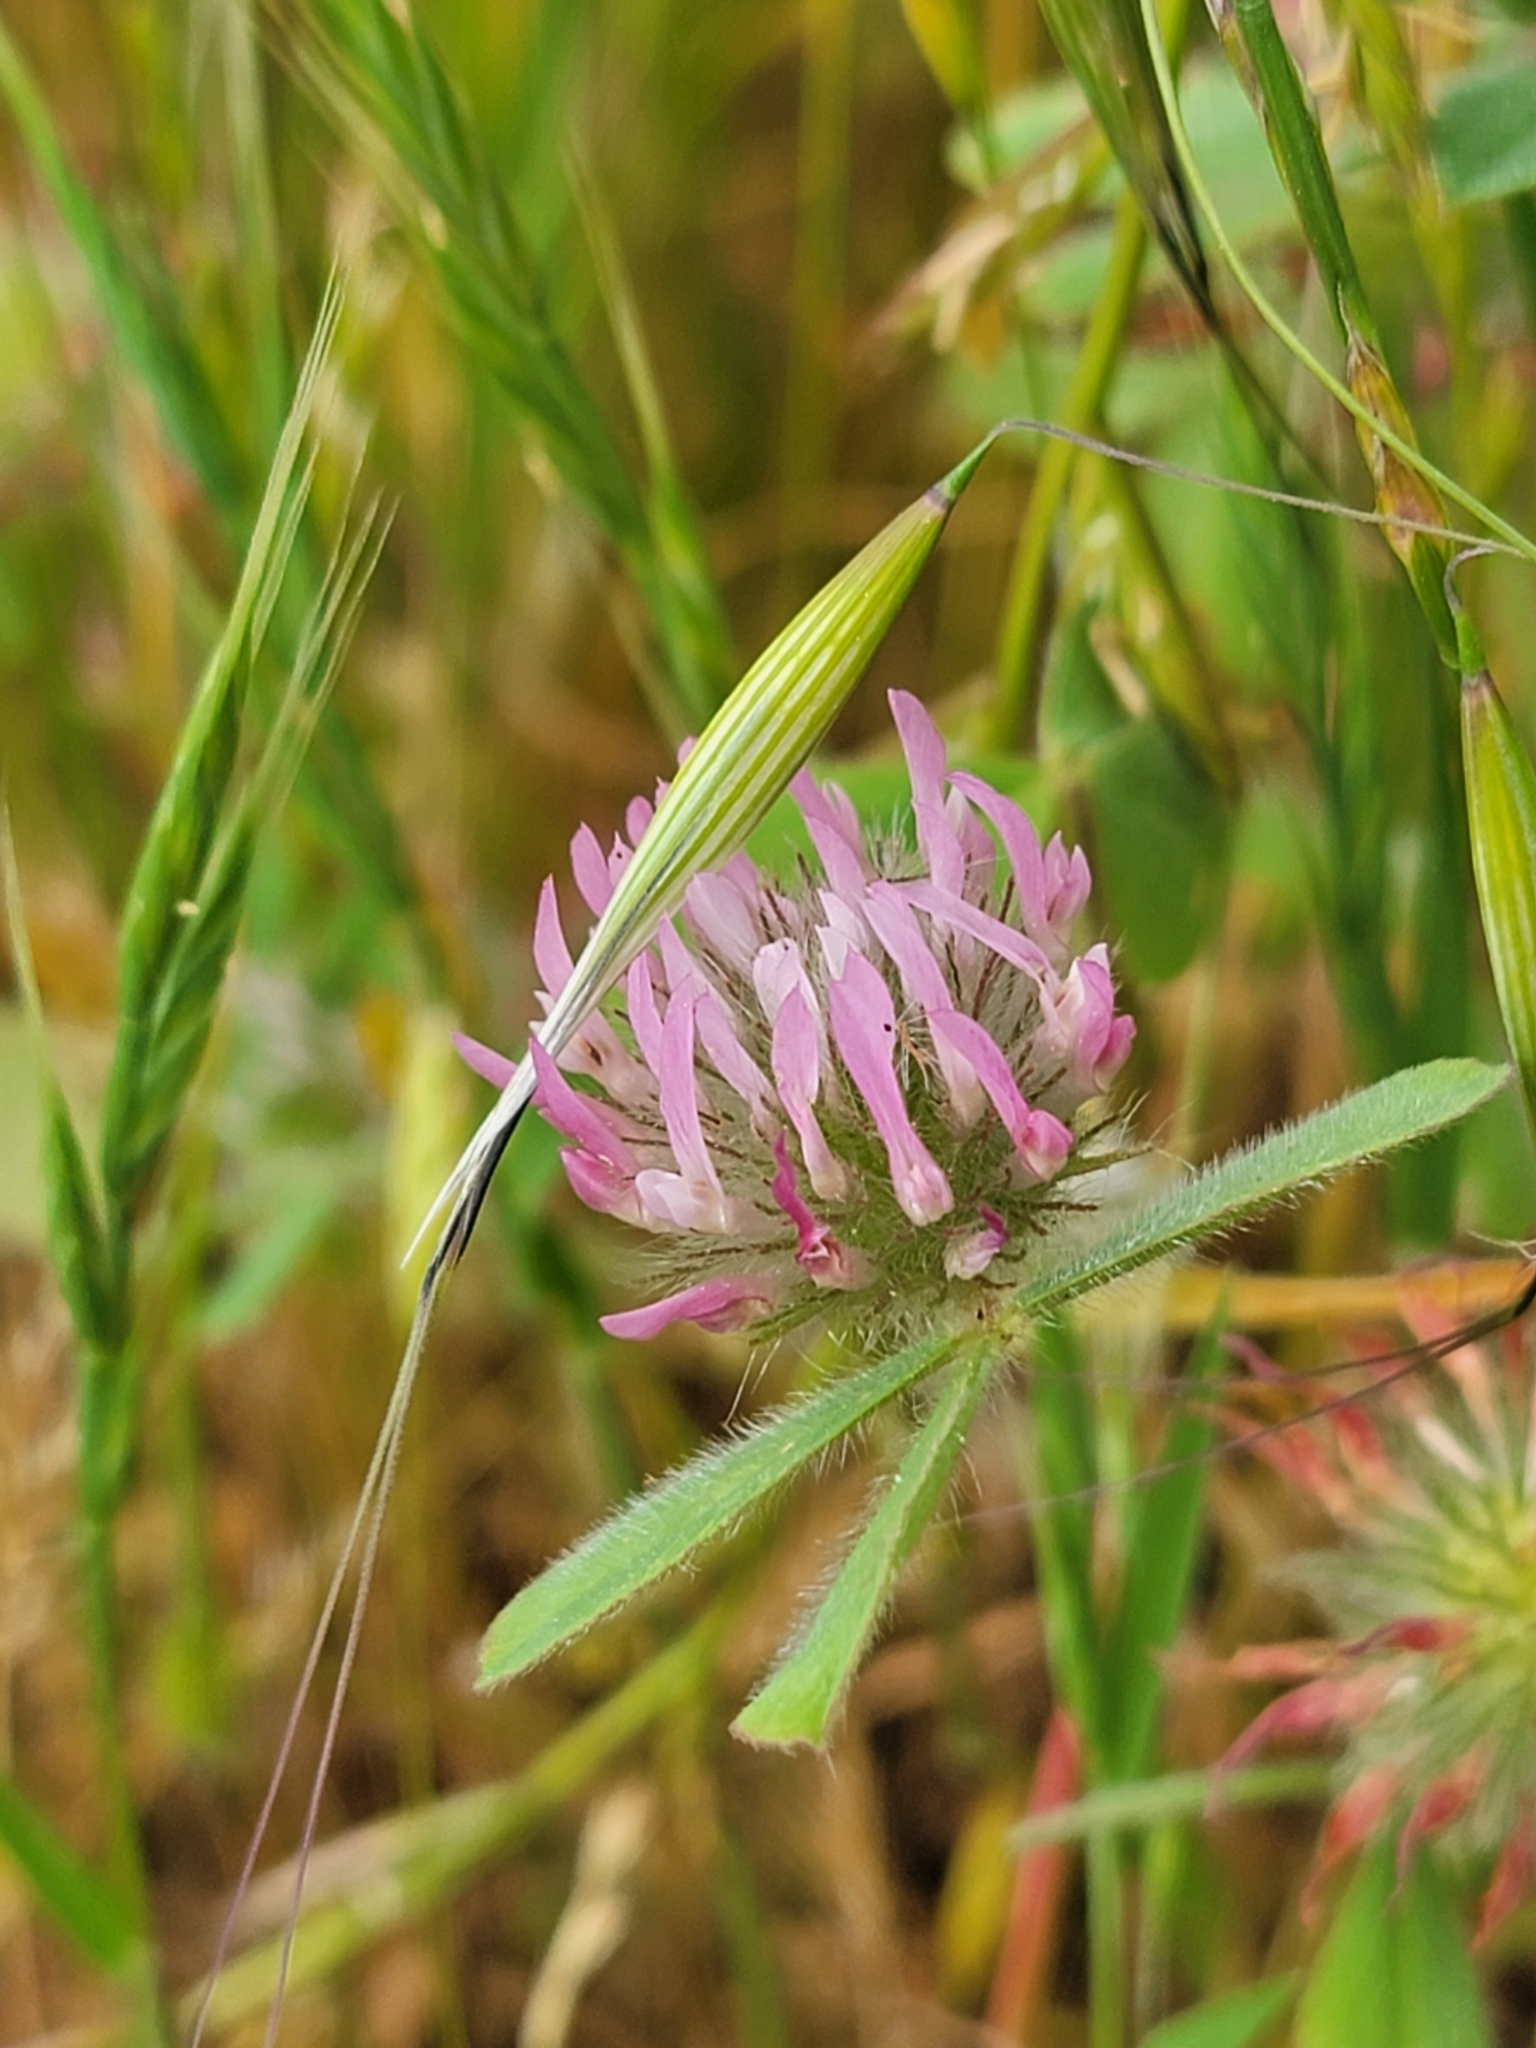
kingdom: Plantae
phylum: Tracheophyta
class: Magnoliopsida
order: Fabales
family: Fabaceae
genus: Trifolium
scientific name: Trifolium hirtum
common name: Rose clover
